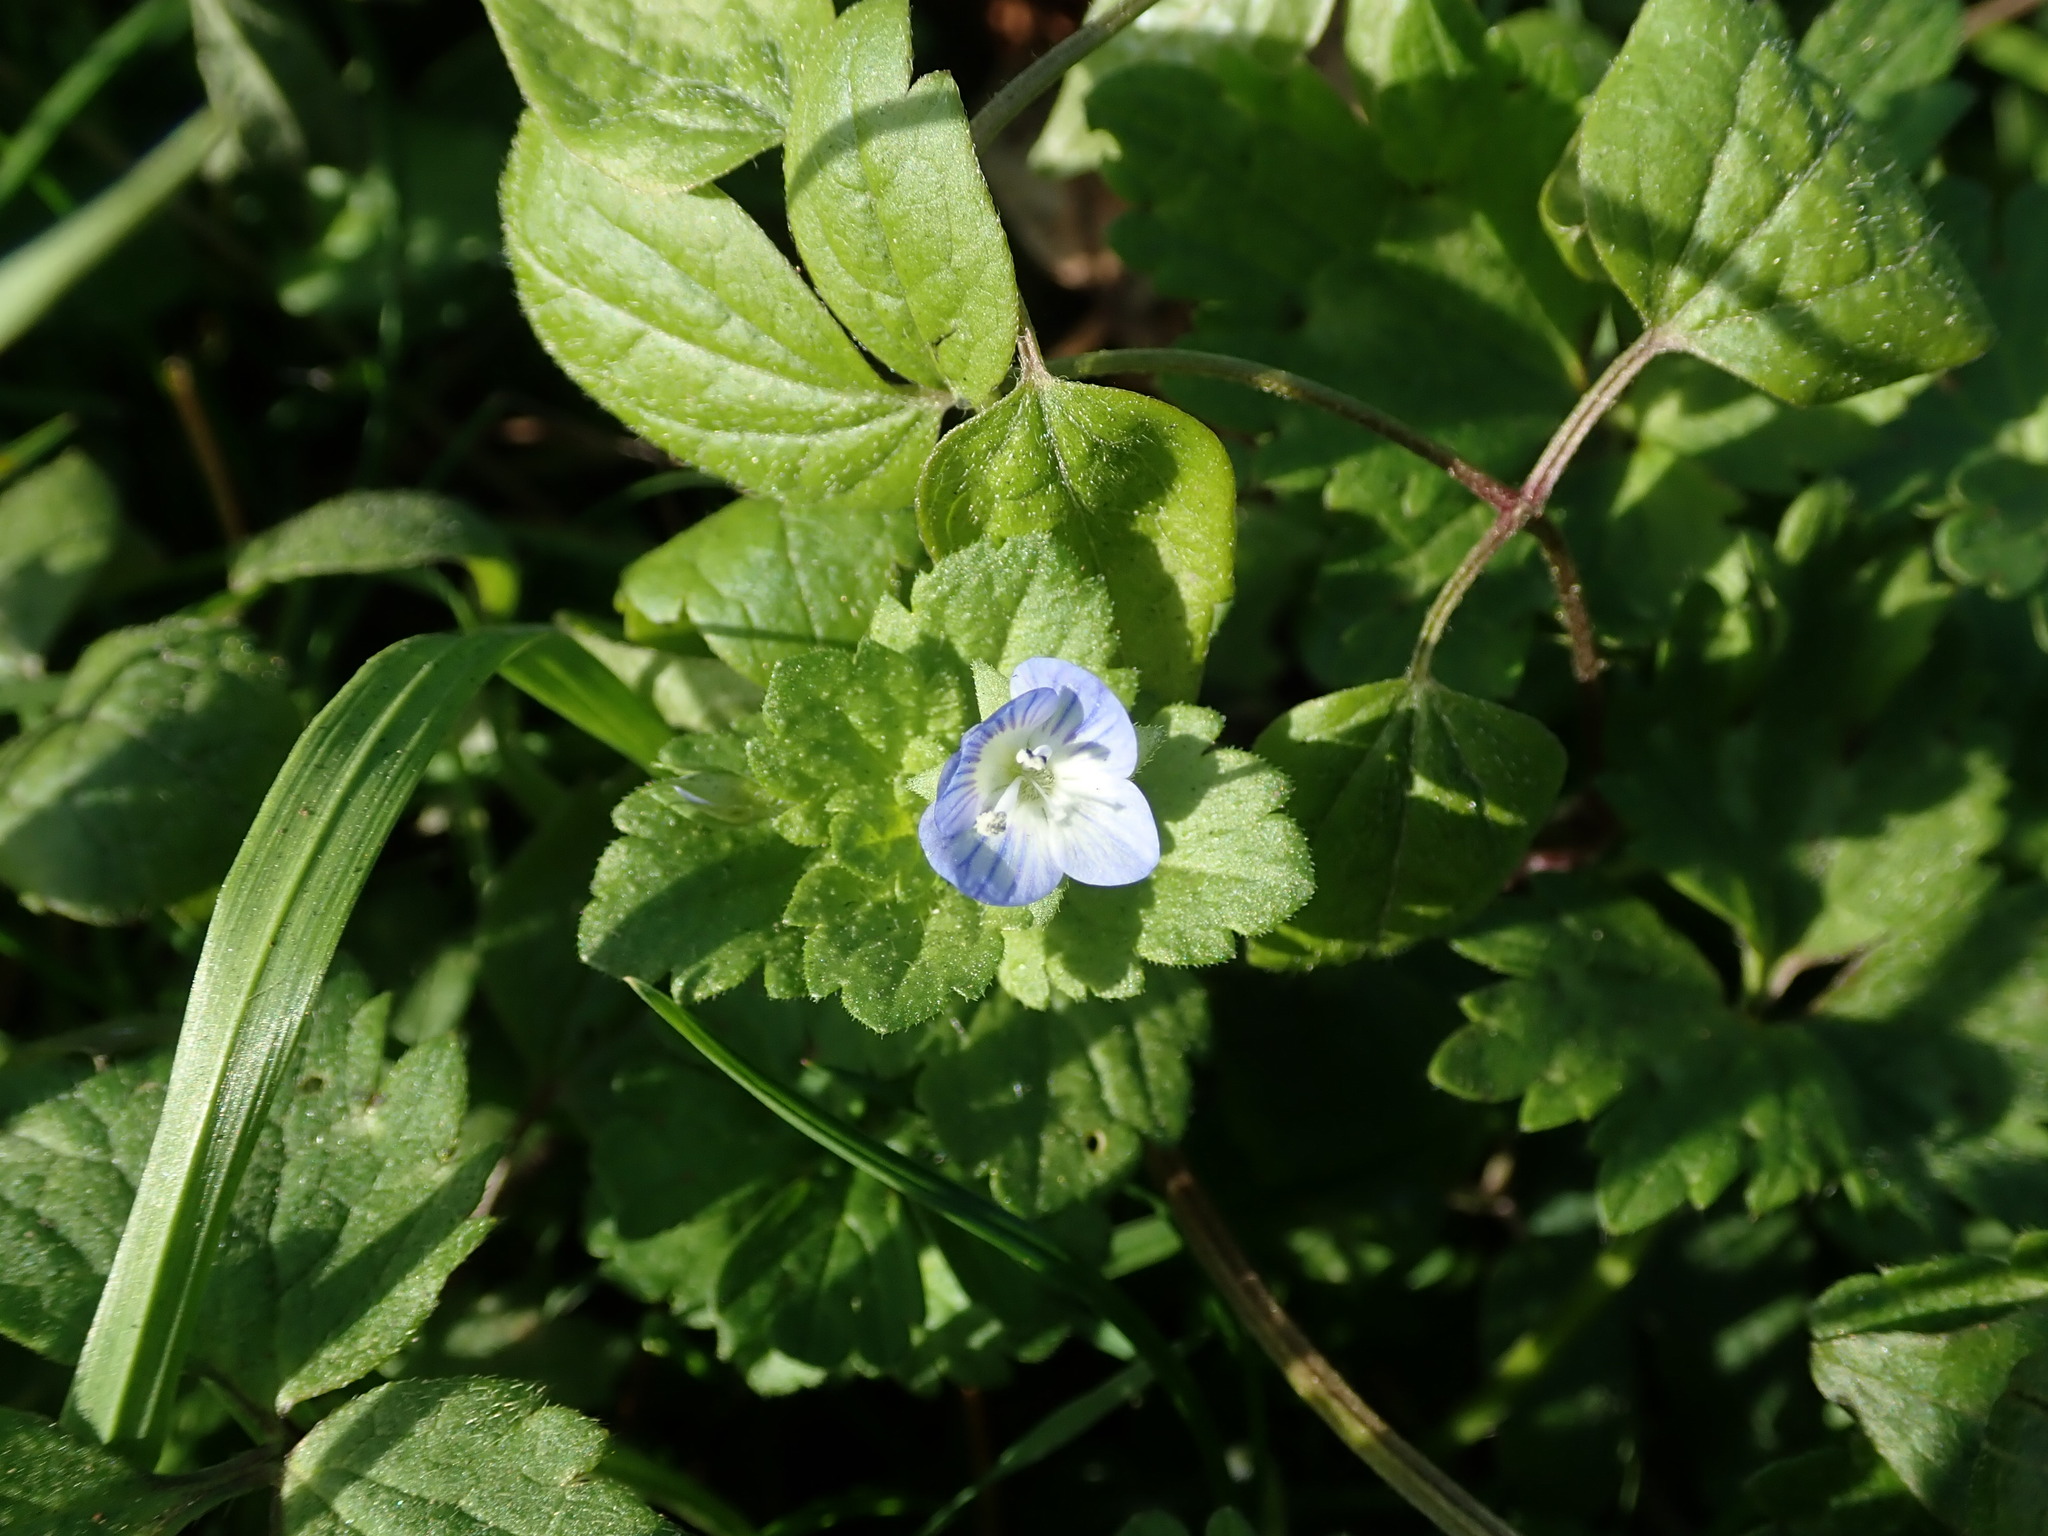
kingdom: Plantae
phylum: Tracheophyta
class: Magnoliopsida
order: Lamiales
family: Plantaginaceae
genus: Veronica
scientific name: Veronica persica
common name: Common field-speedwell
